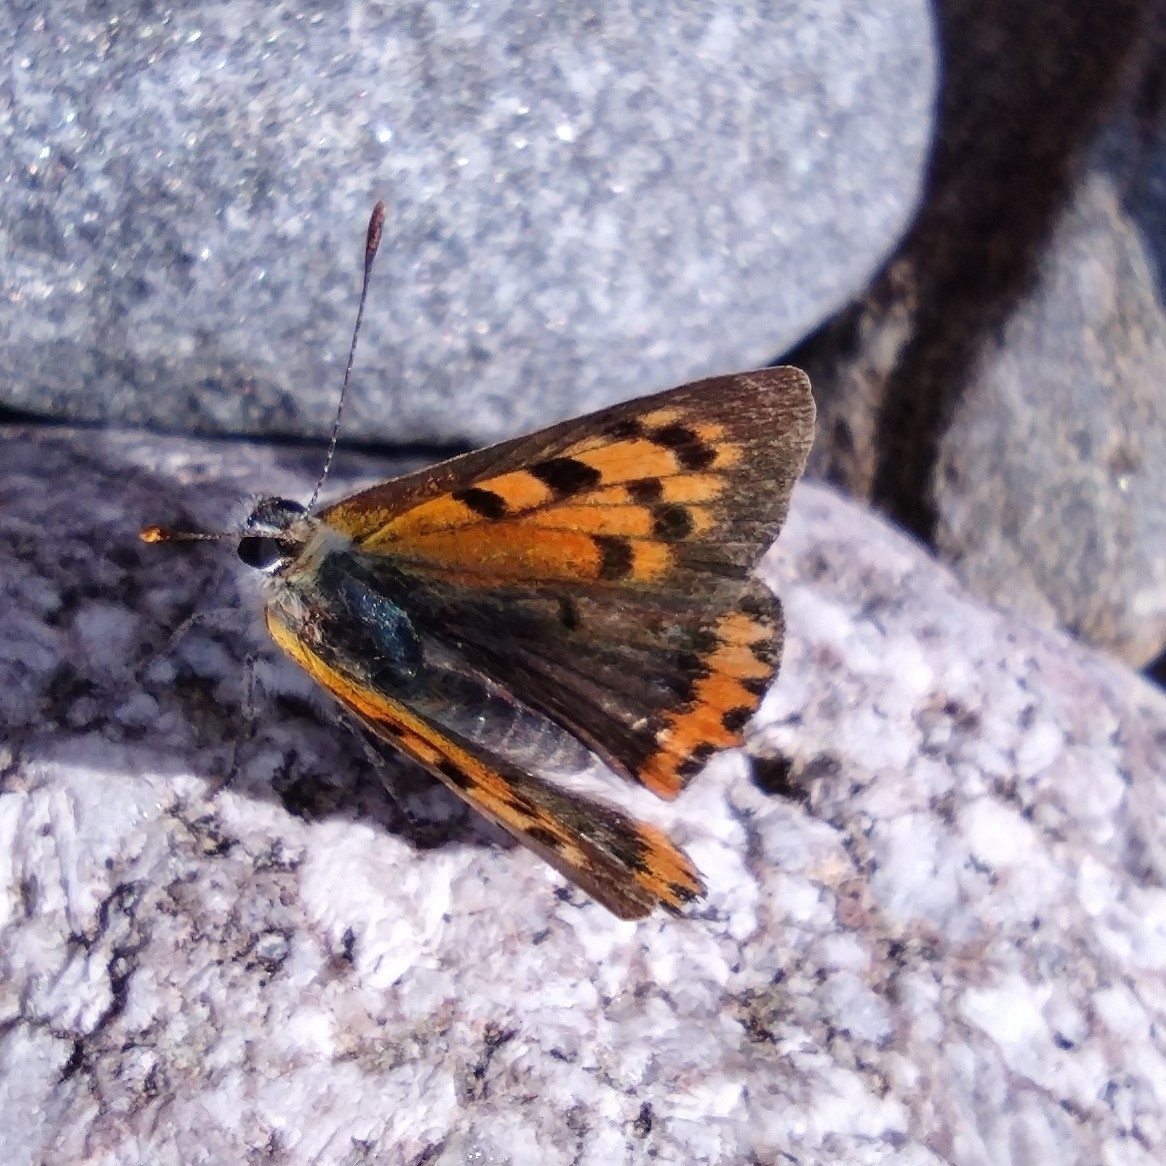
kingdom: Animalia
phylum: Arthropoda
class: Insecta
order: Lepidoptera
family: Lycaenidae
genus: Lycaena
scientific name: Lycaena phlaeas
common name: Small copper
